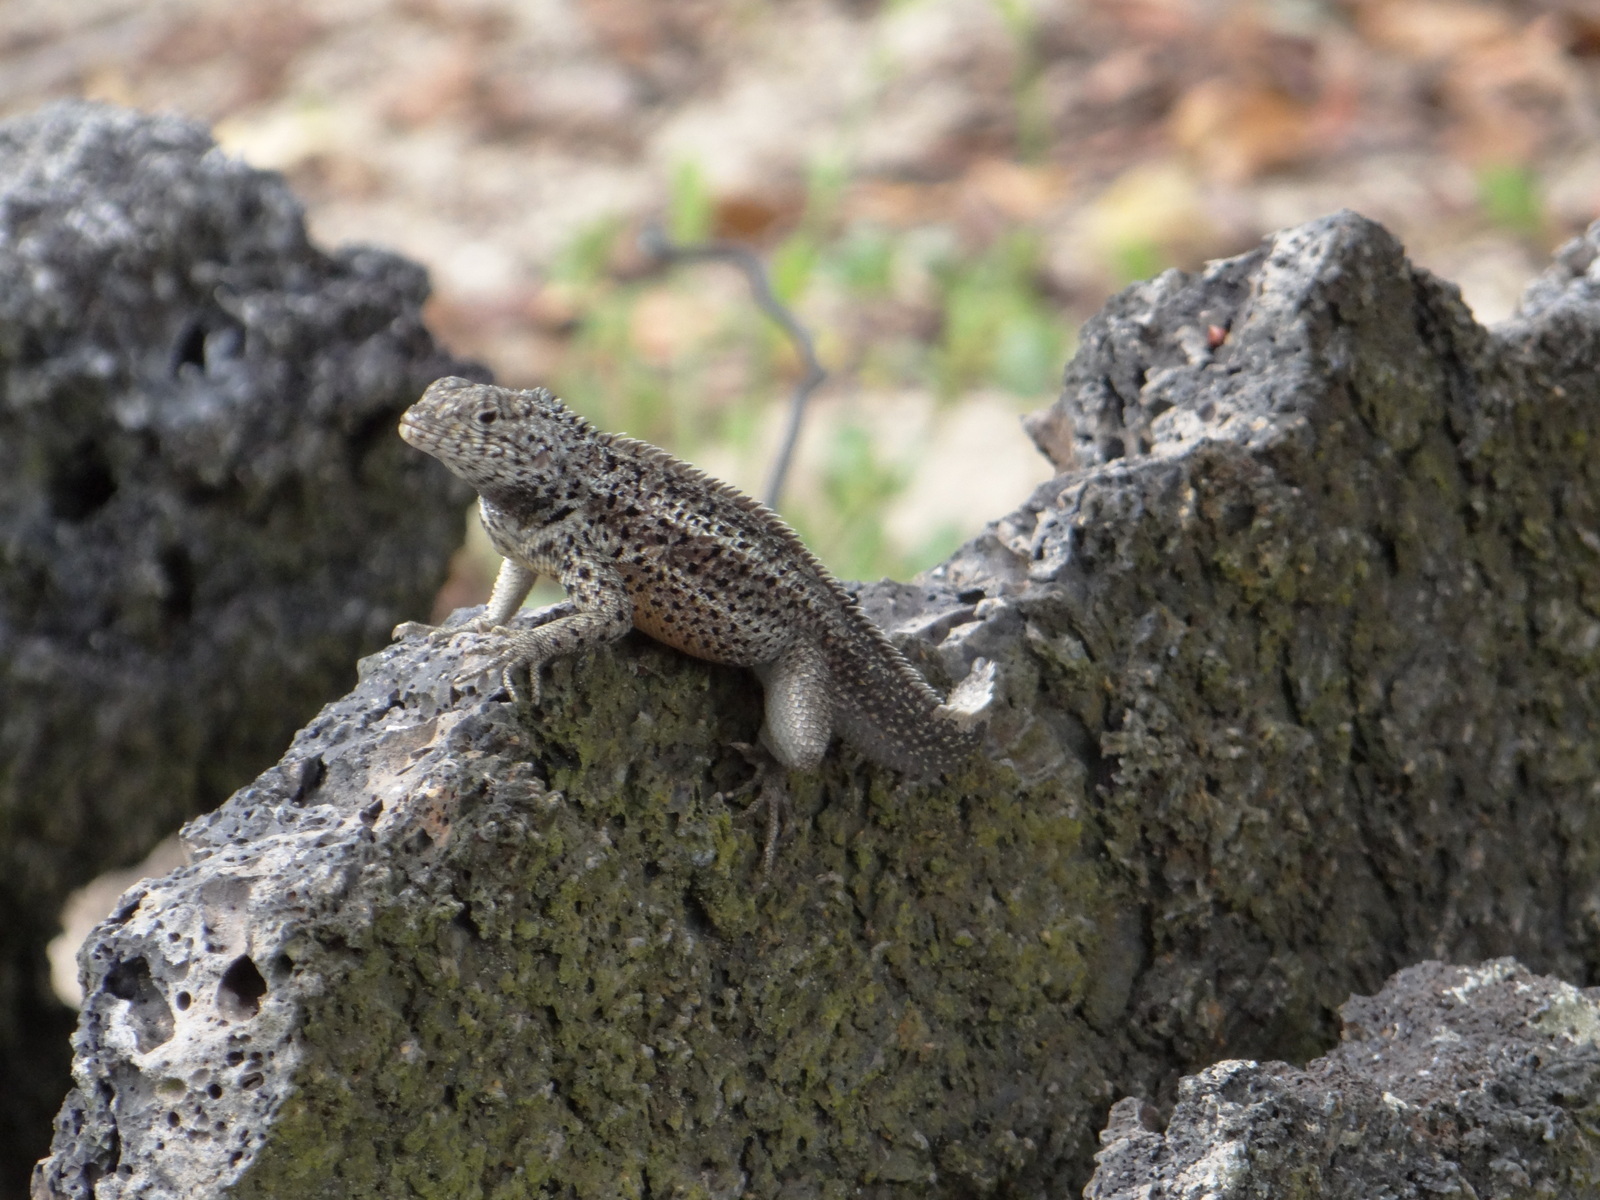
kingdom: Animalia
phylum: Chordata
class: Squamata
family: Tropiduridae
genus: Microlophus
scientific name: Microlophus albemarlensis
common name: Galapagos lava lizard
